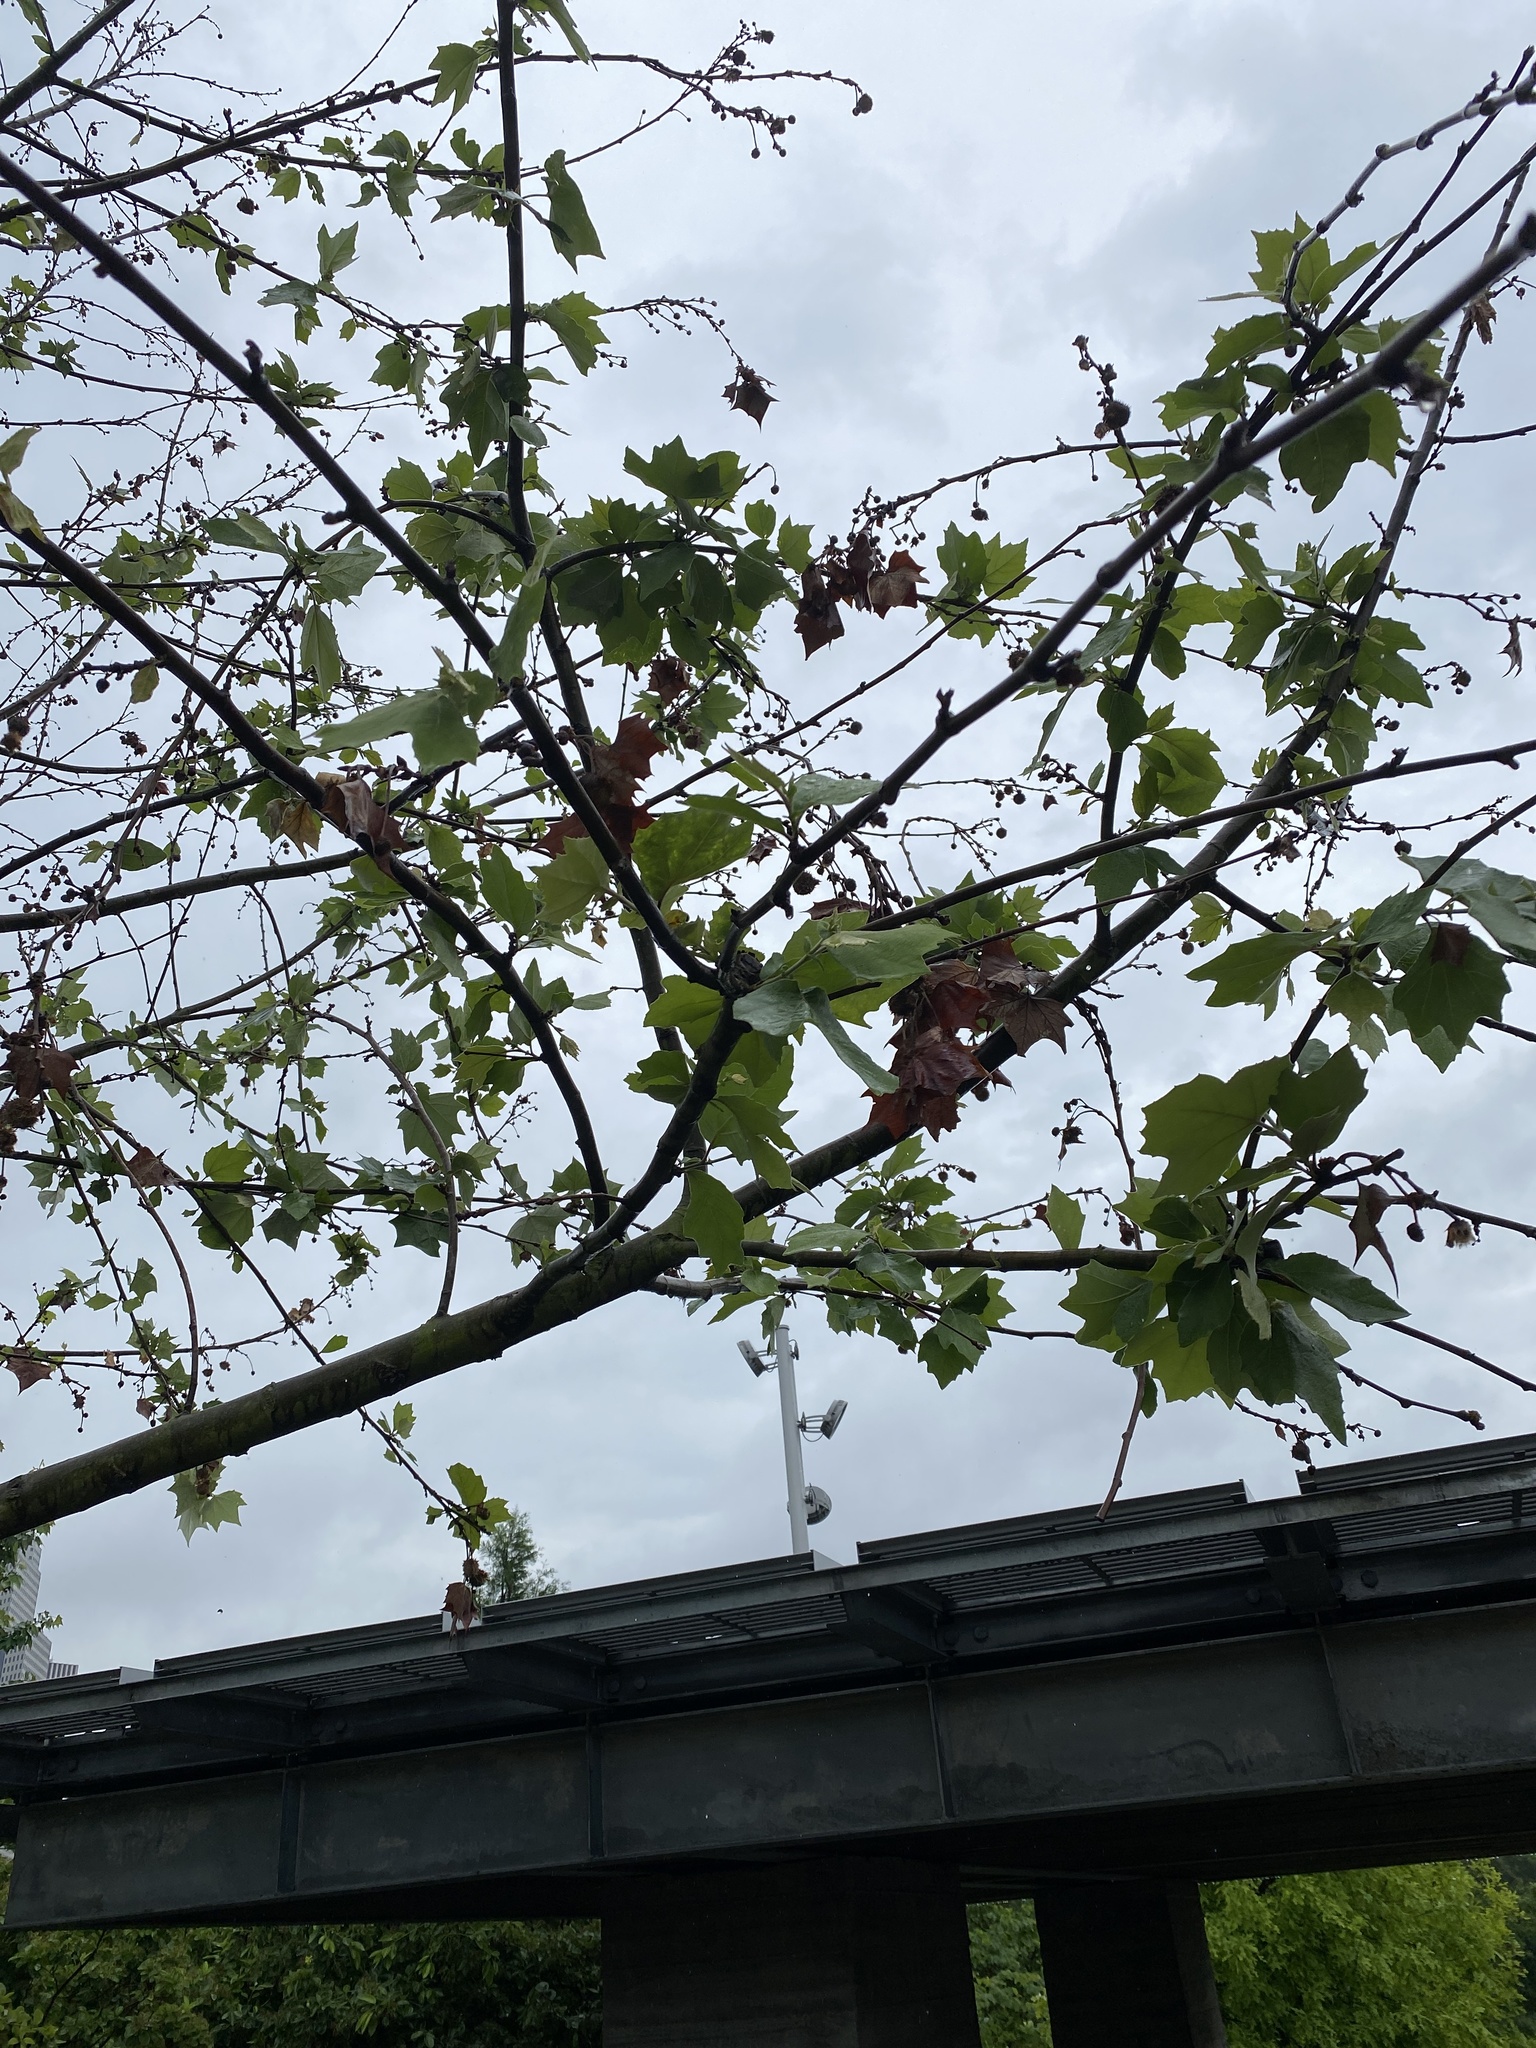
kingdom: Plantae
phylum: Tracheophyta
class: Magnoliopsida
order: Proteales
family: Platanaceae
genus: Platanus
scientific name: Platanus occidentalis
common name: American sycamore
